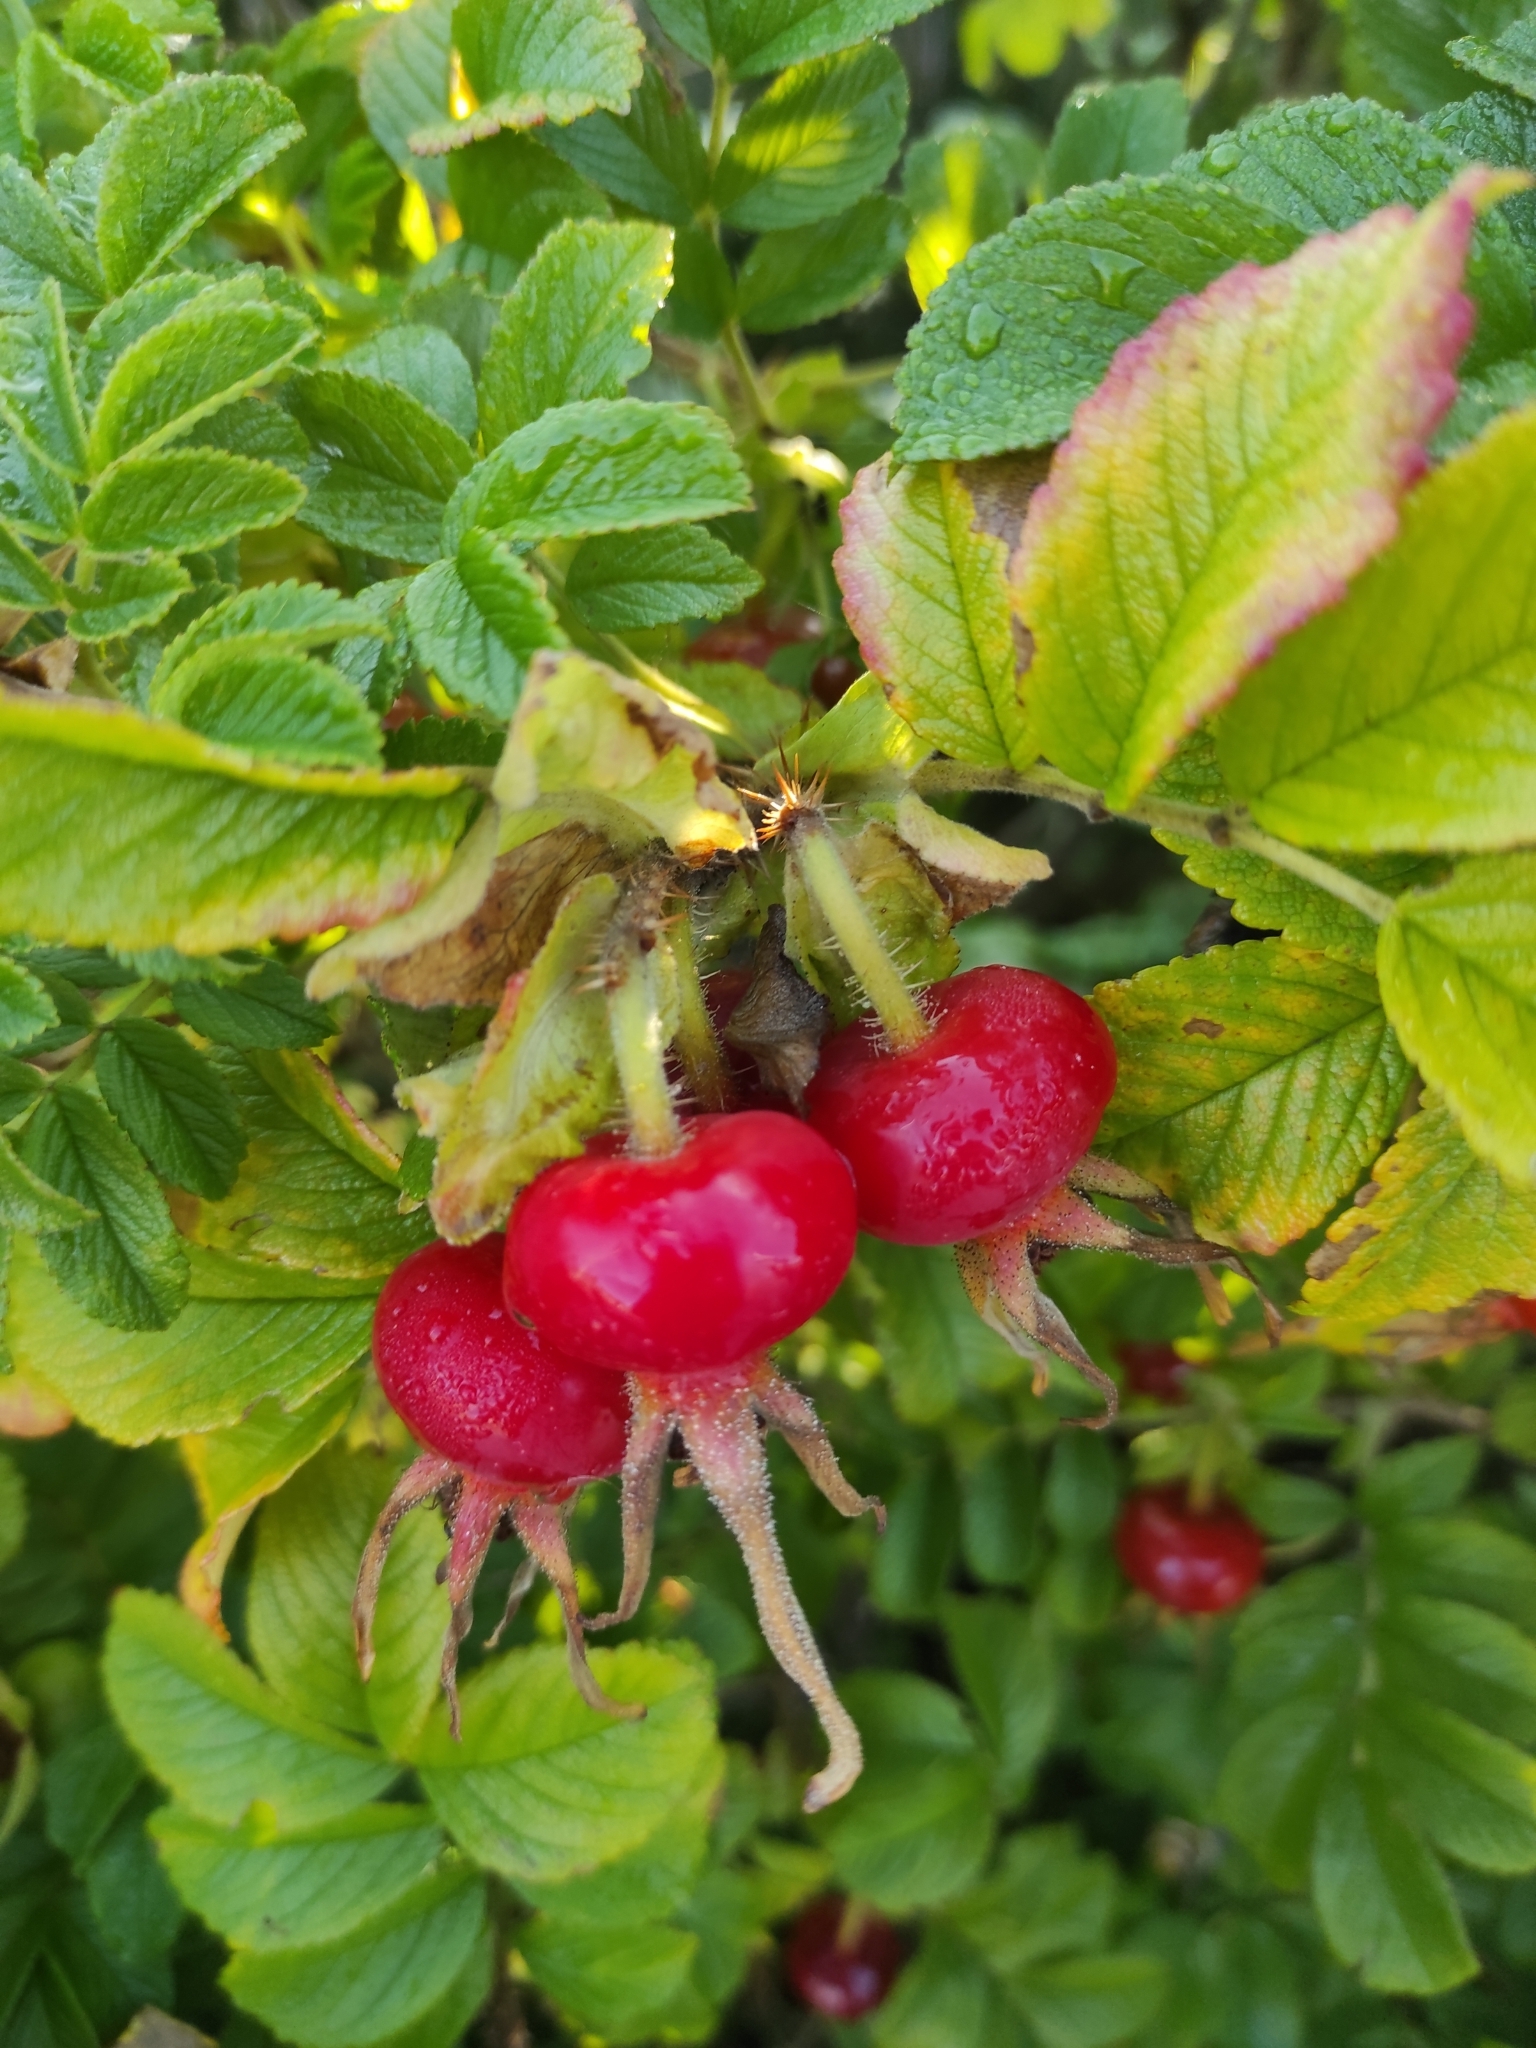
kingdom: Plantae
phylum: Tracheophyta
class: Magnoliopsida
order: Rosales
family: Rosaceae
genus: Rosa
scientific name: Rosa rugosa
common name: Japanese rose
